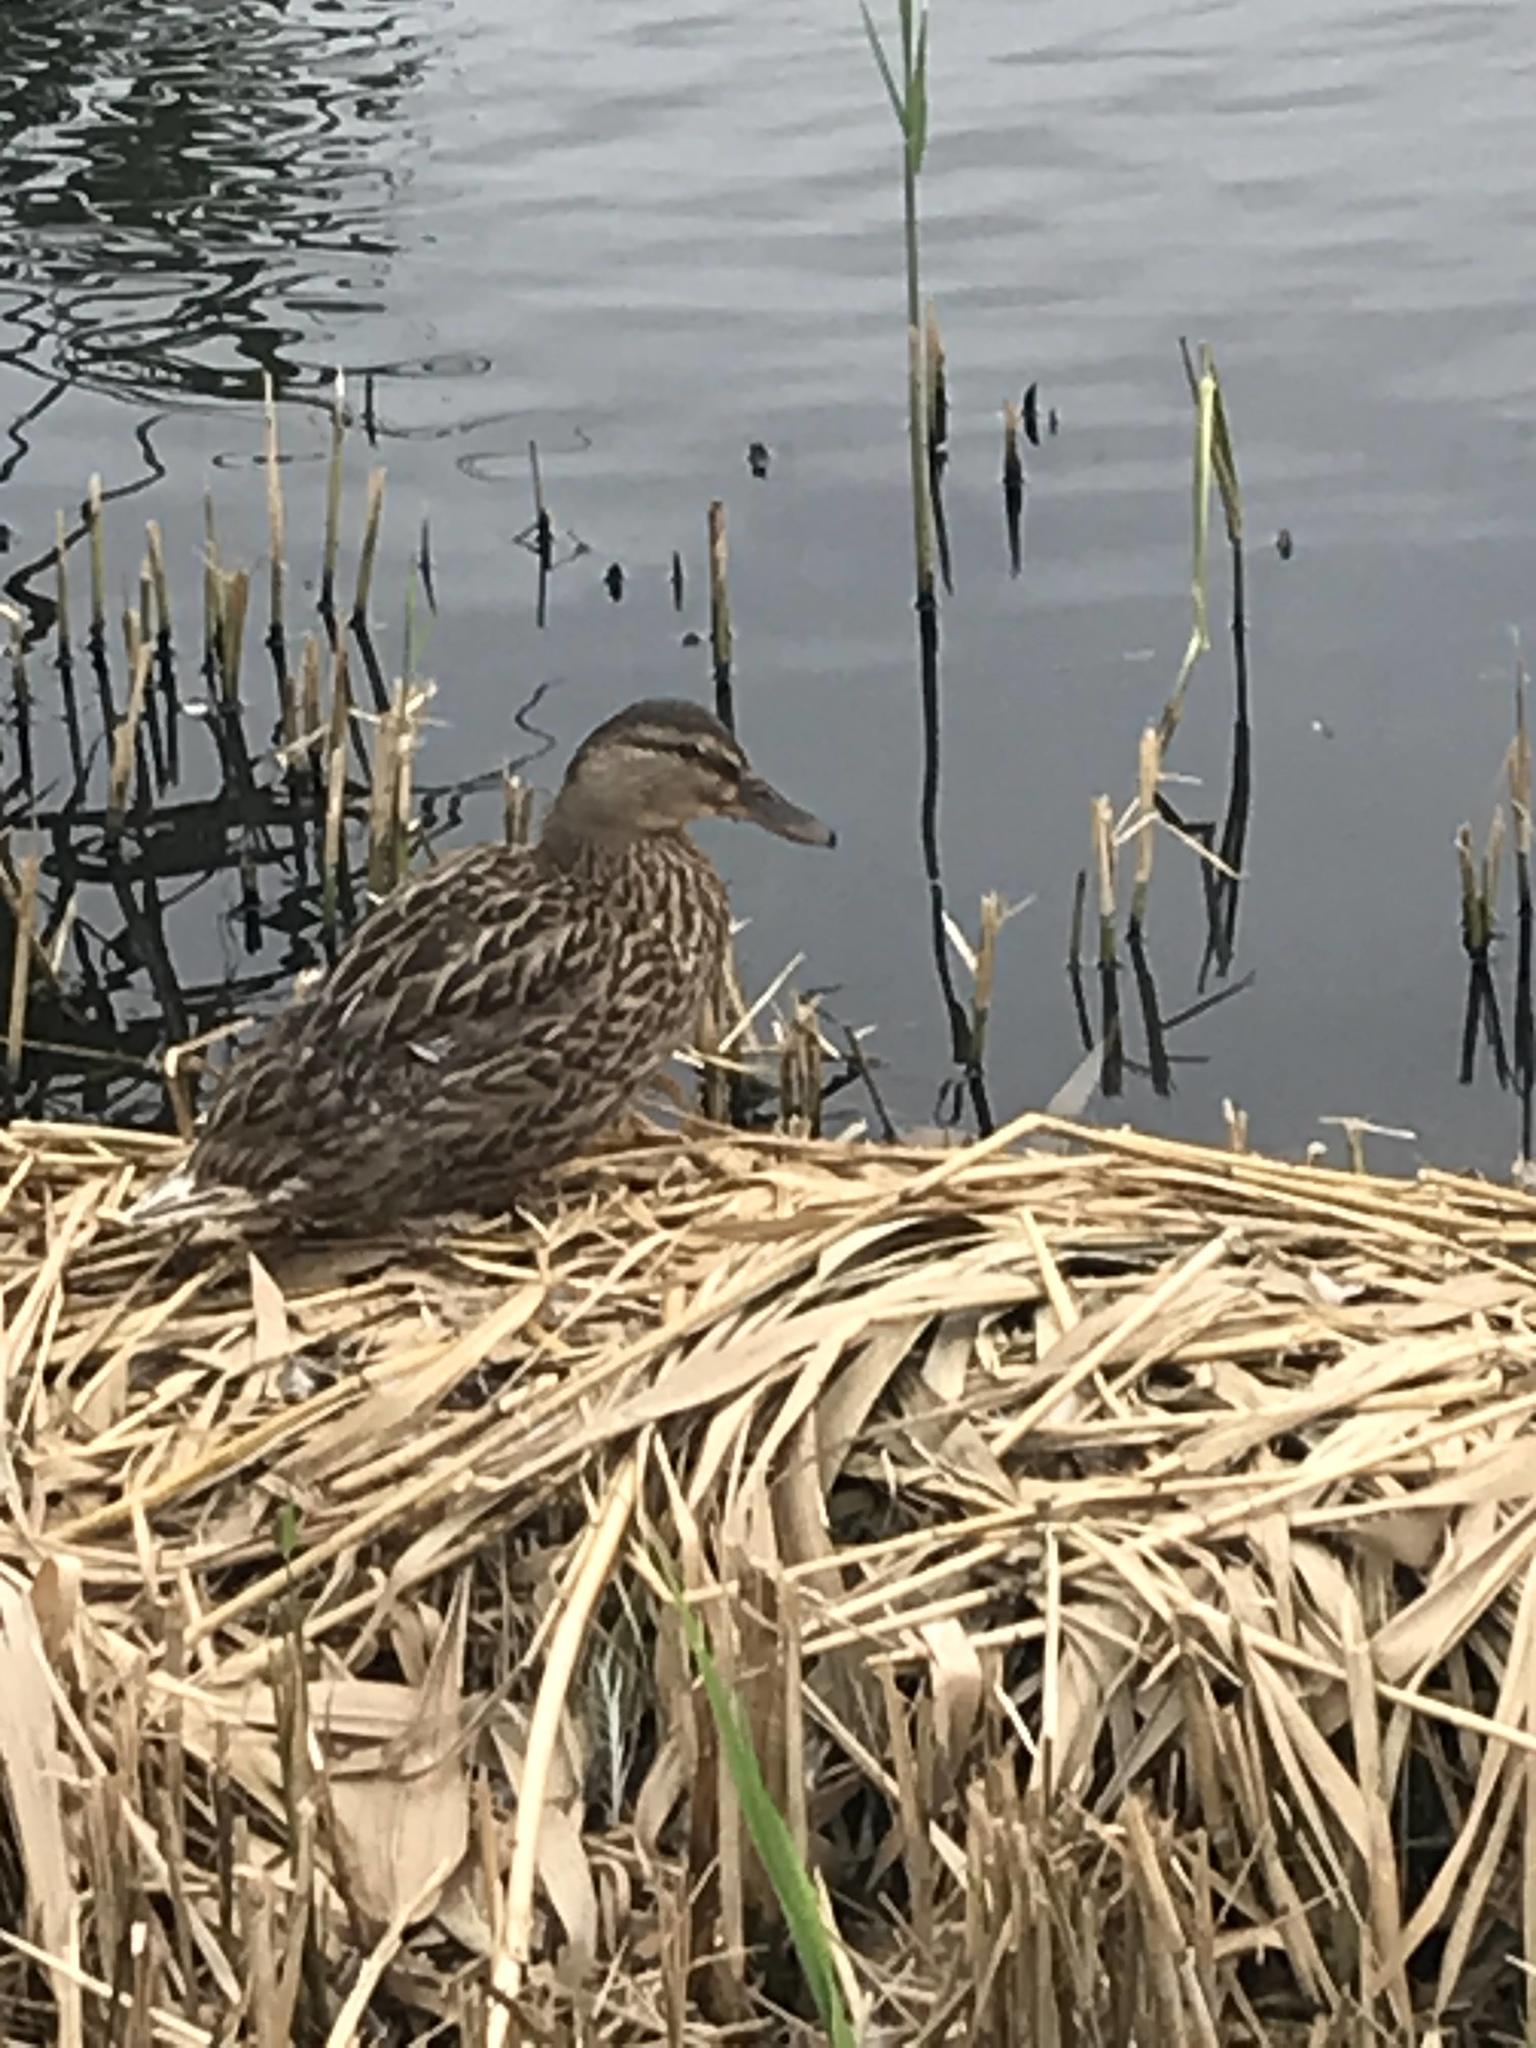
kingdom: Animalia
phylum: Chordata
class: Aves
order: Anseriformes
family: Anatidae
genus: Anas
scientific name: Anas platyrhynchos
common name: Mallard
